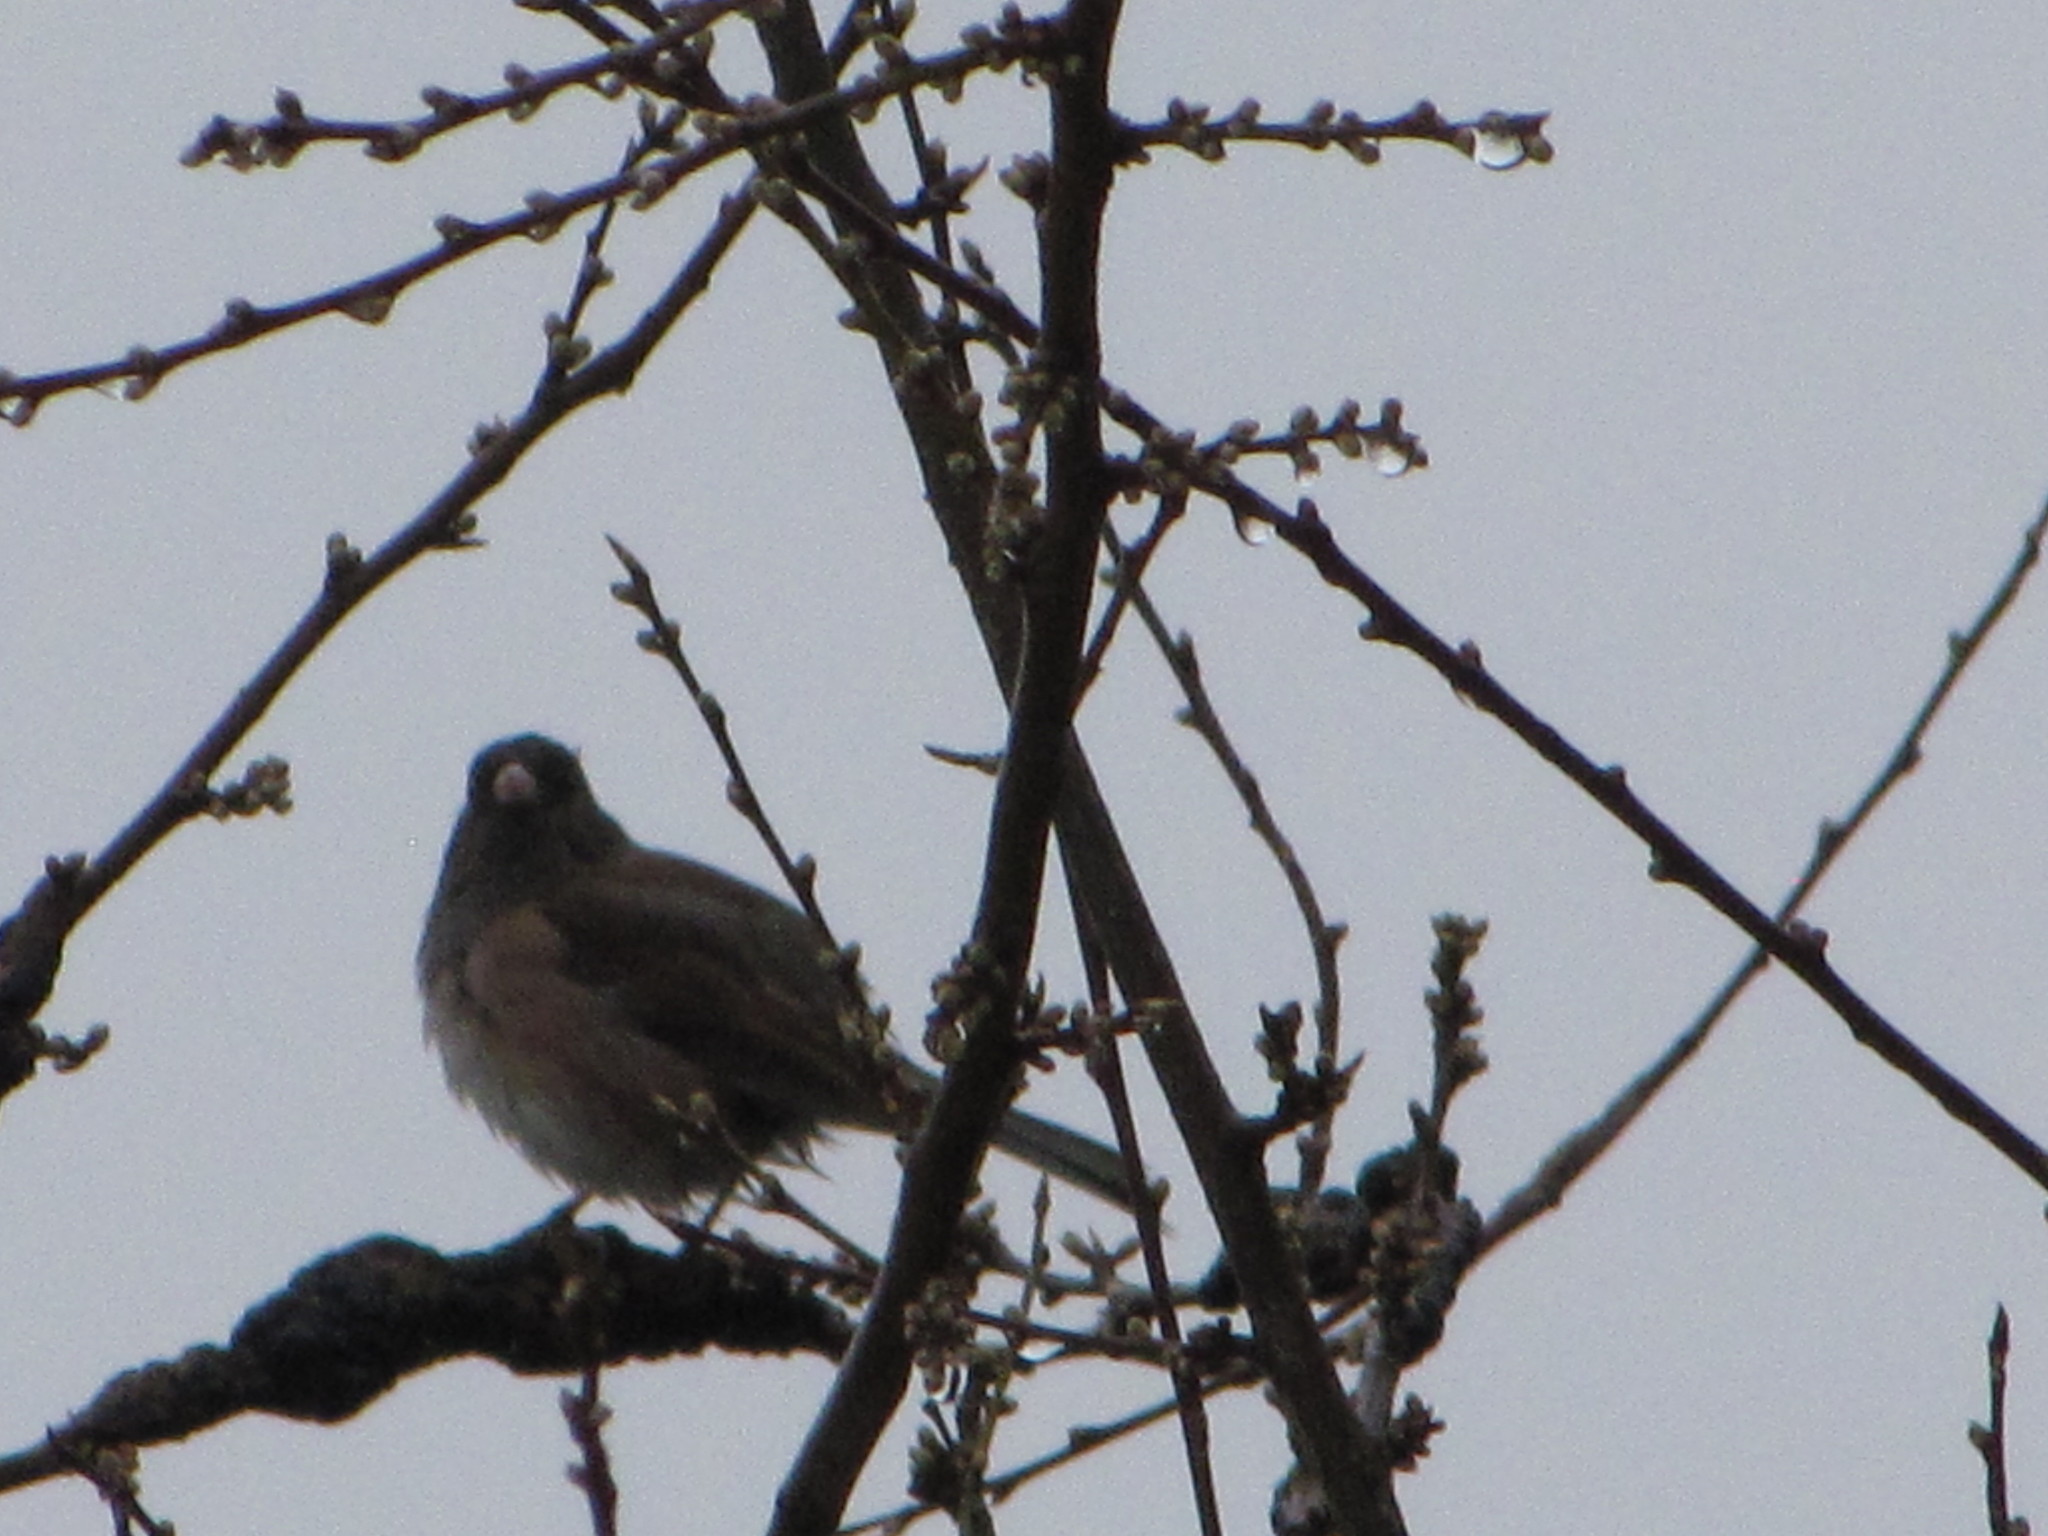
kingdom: Animalia
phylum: Chordata
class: Aves
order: Passeriformes
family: Passerellidae
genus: Junco
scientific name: Junco hyemalis
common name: Dark-eyed junco
